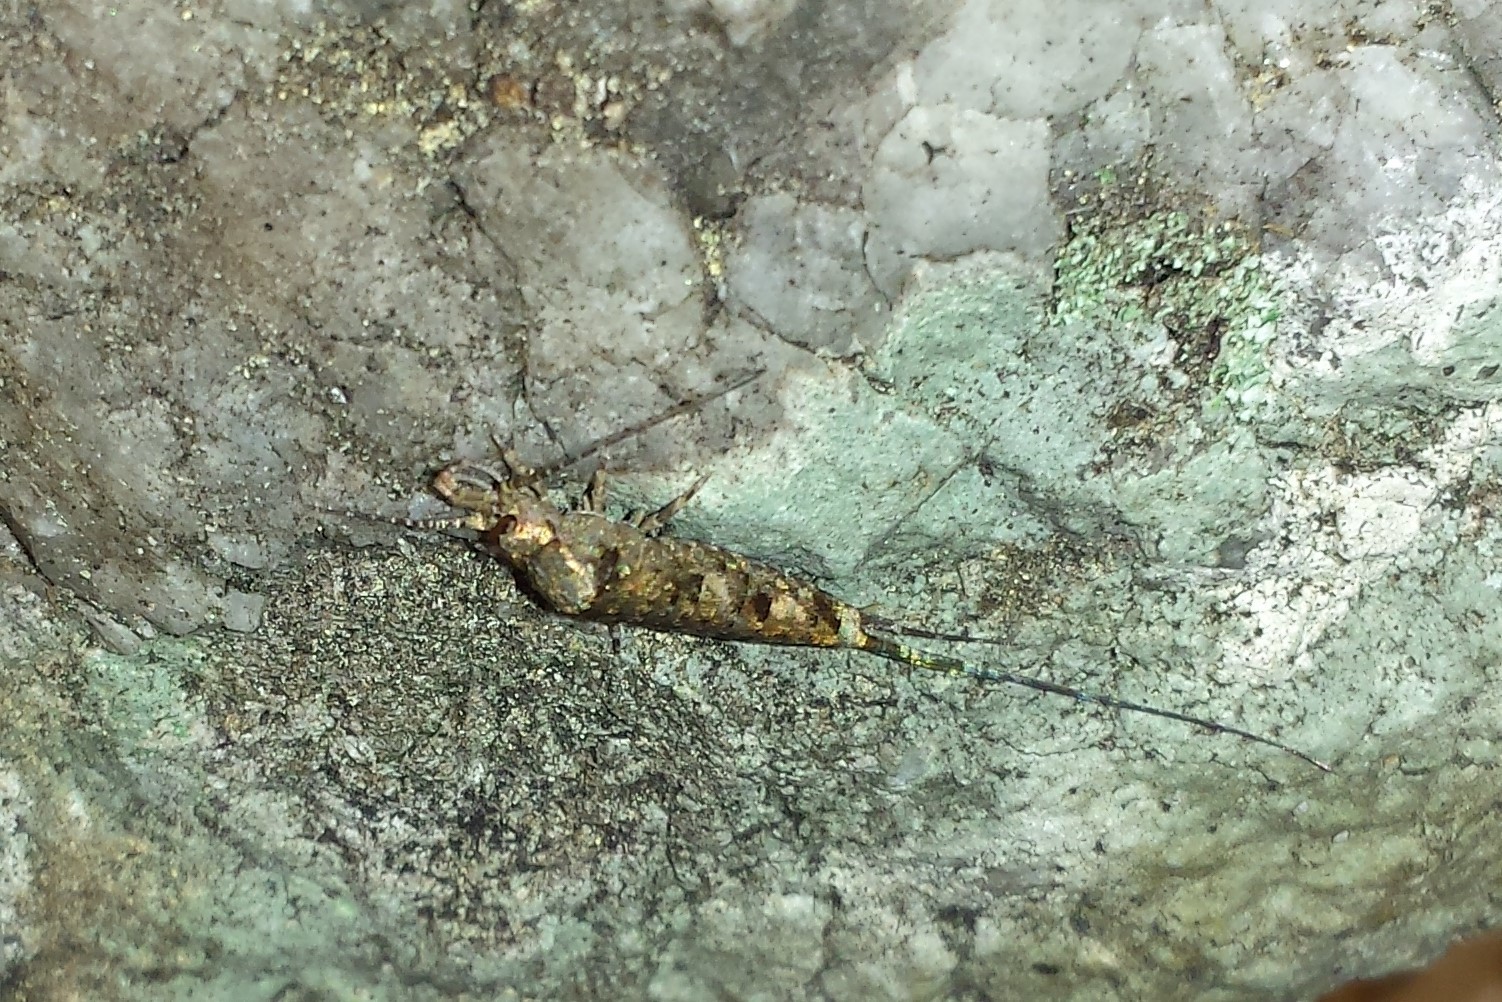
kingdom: Animalia
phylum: Arthropoda
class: Insecta
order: Archaeognatha
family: Machilidae
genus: Trigoniophthalmus
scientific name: Trigoniophthalmus alternatus
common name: Jumping bristletail
